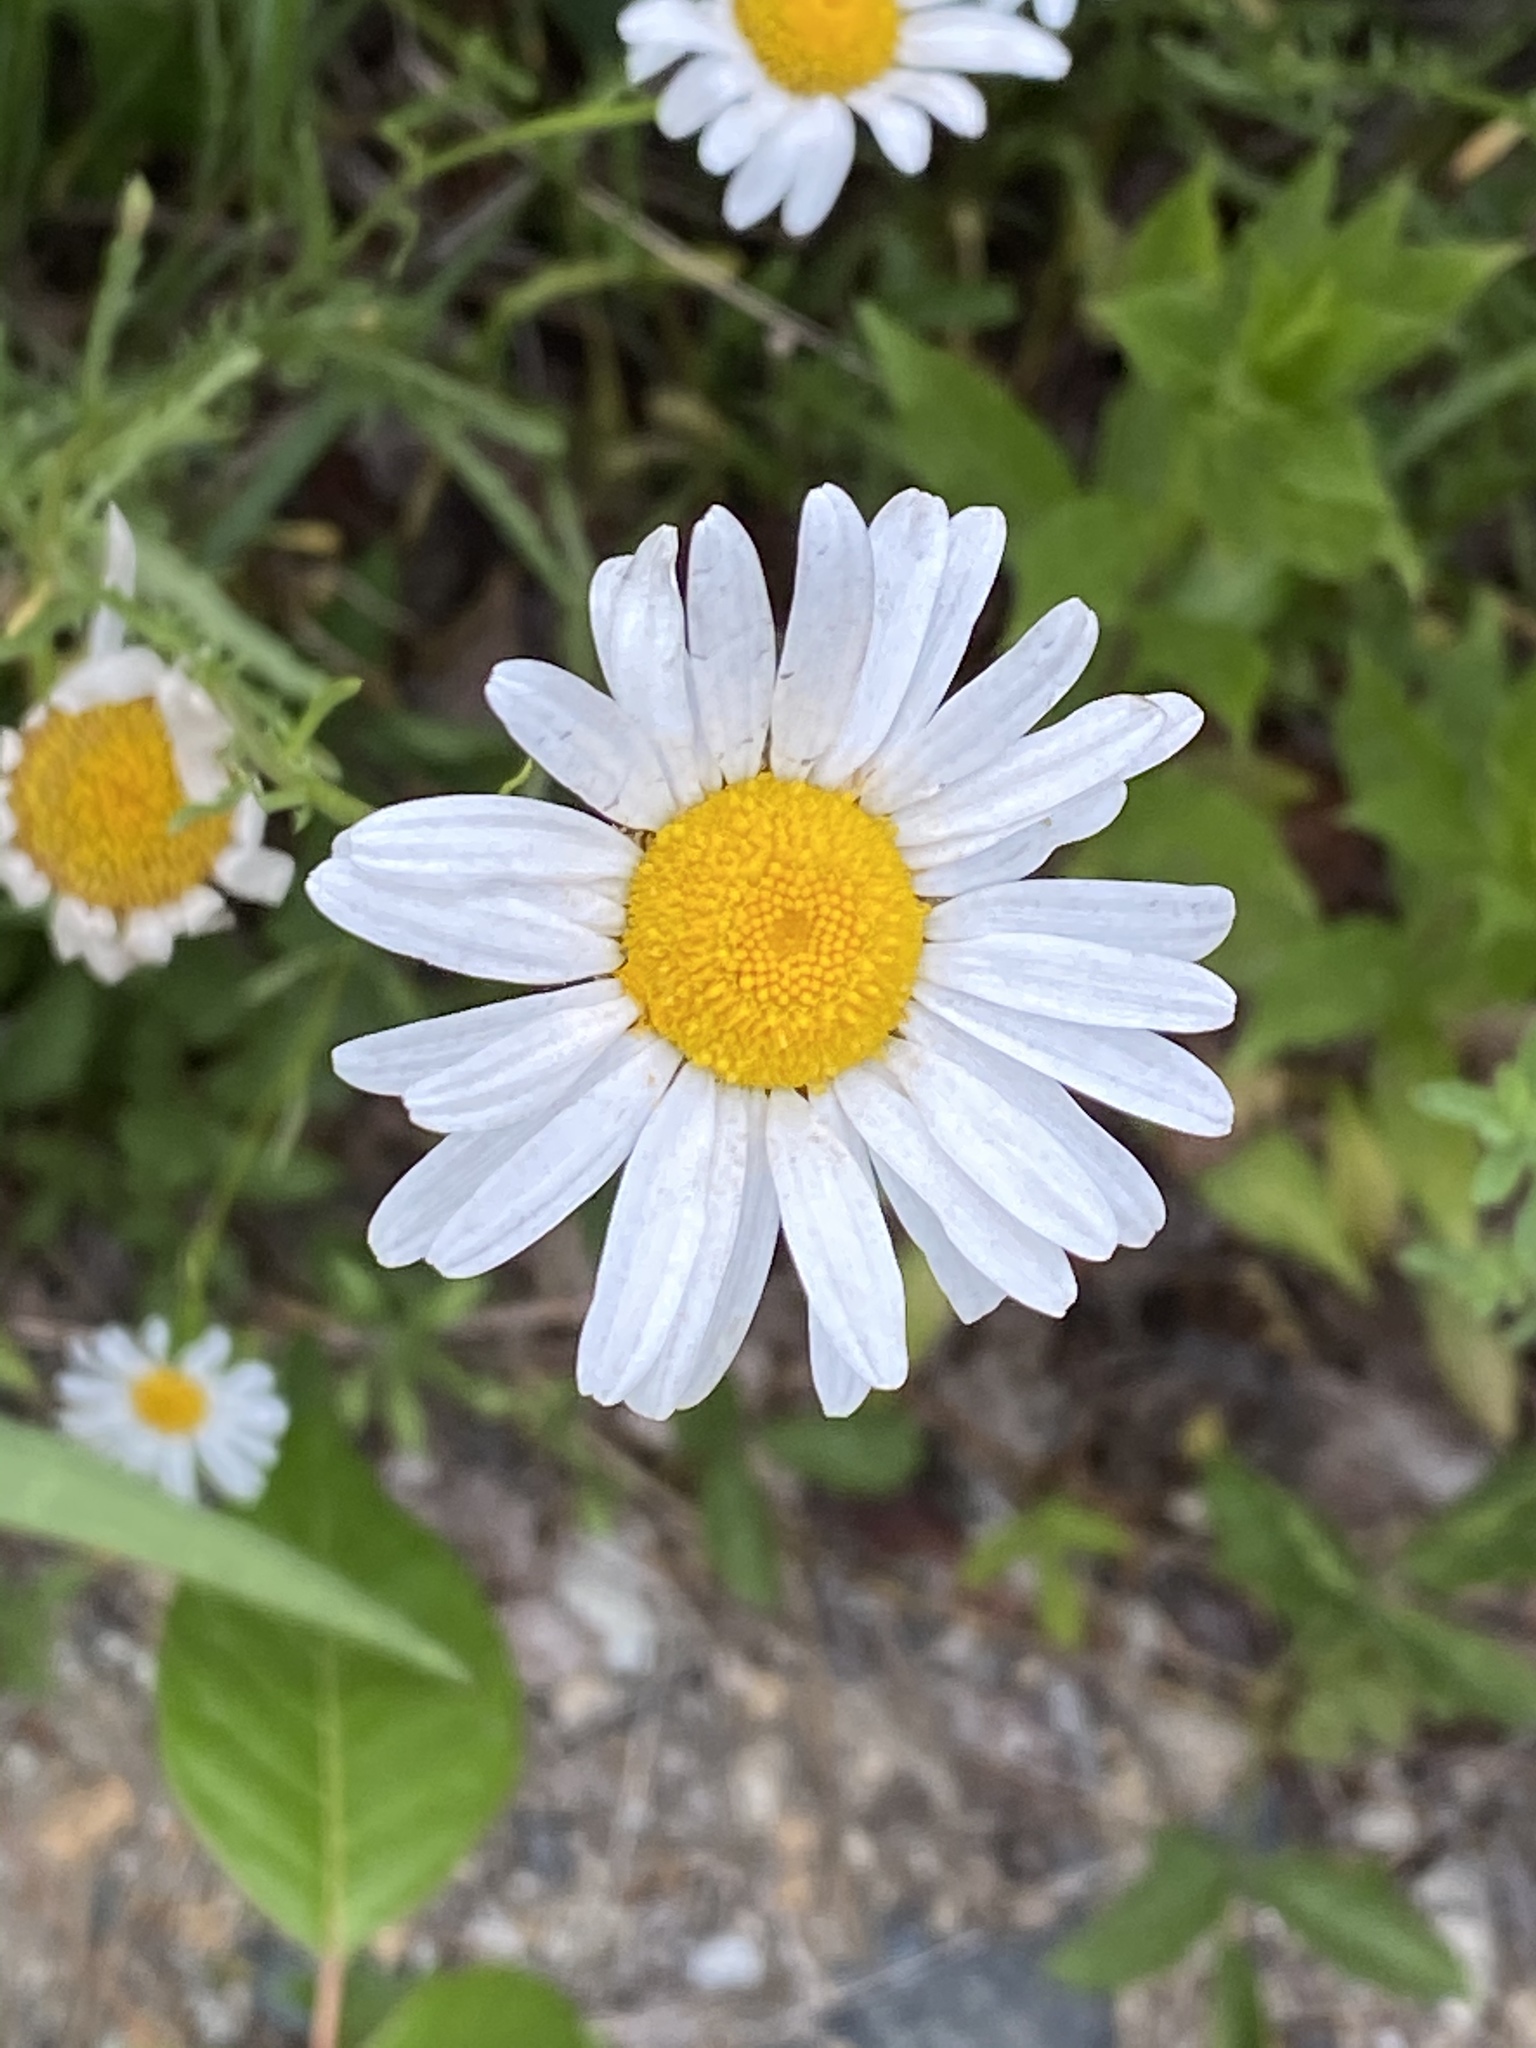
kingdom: Plantae
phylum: Tracheophyta
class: Magnoliopsida
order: Asterales
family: Asteraceae
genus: Leucanthemum
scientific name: Leucanthemum vulgare
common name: Oxeye daisy
